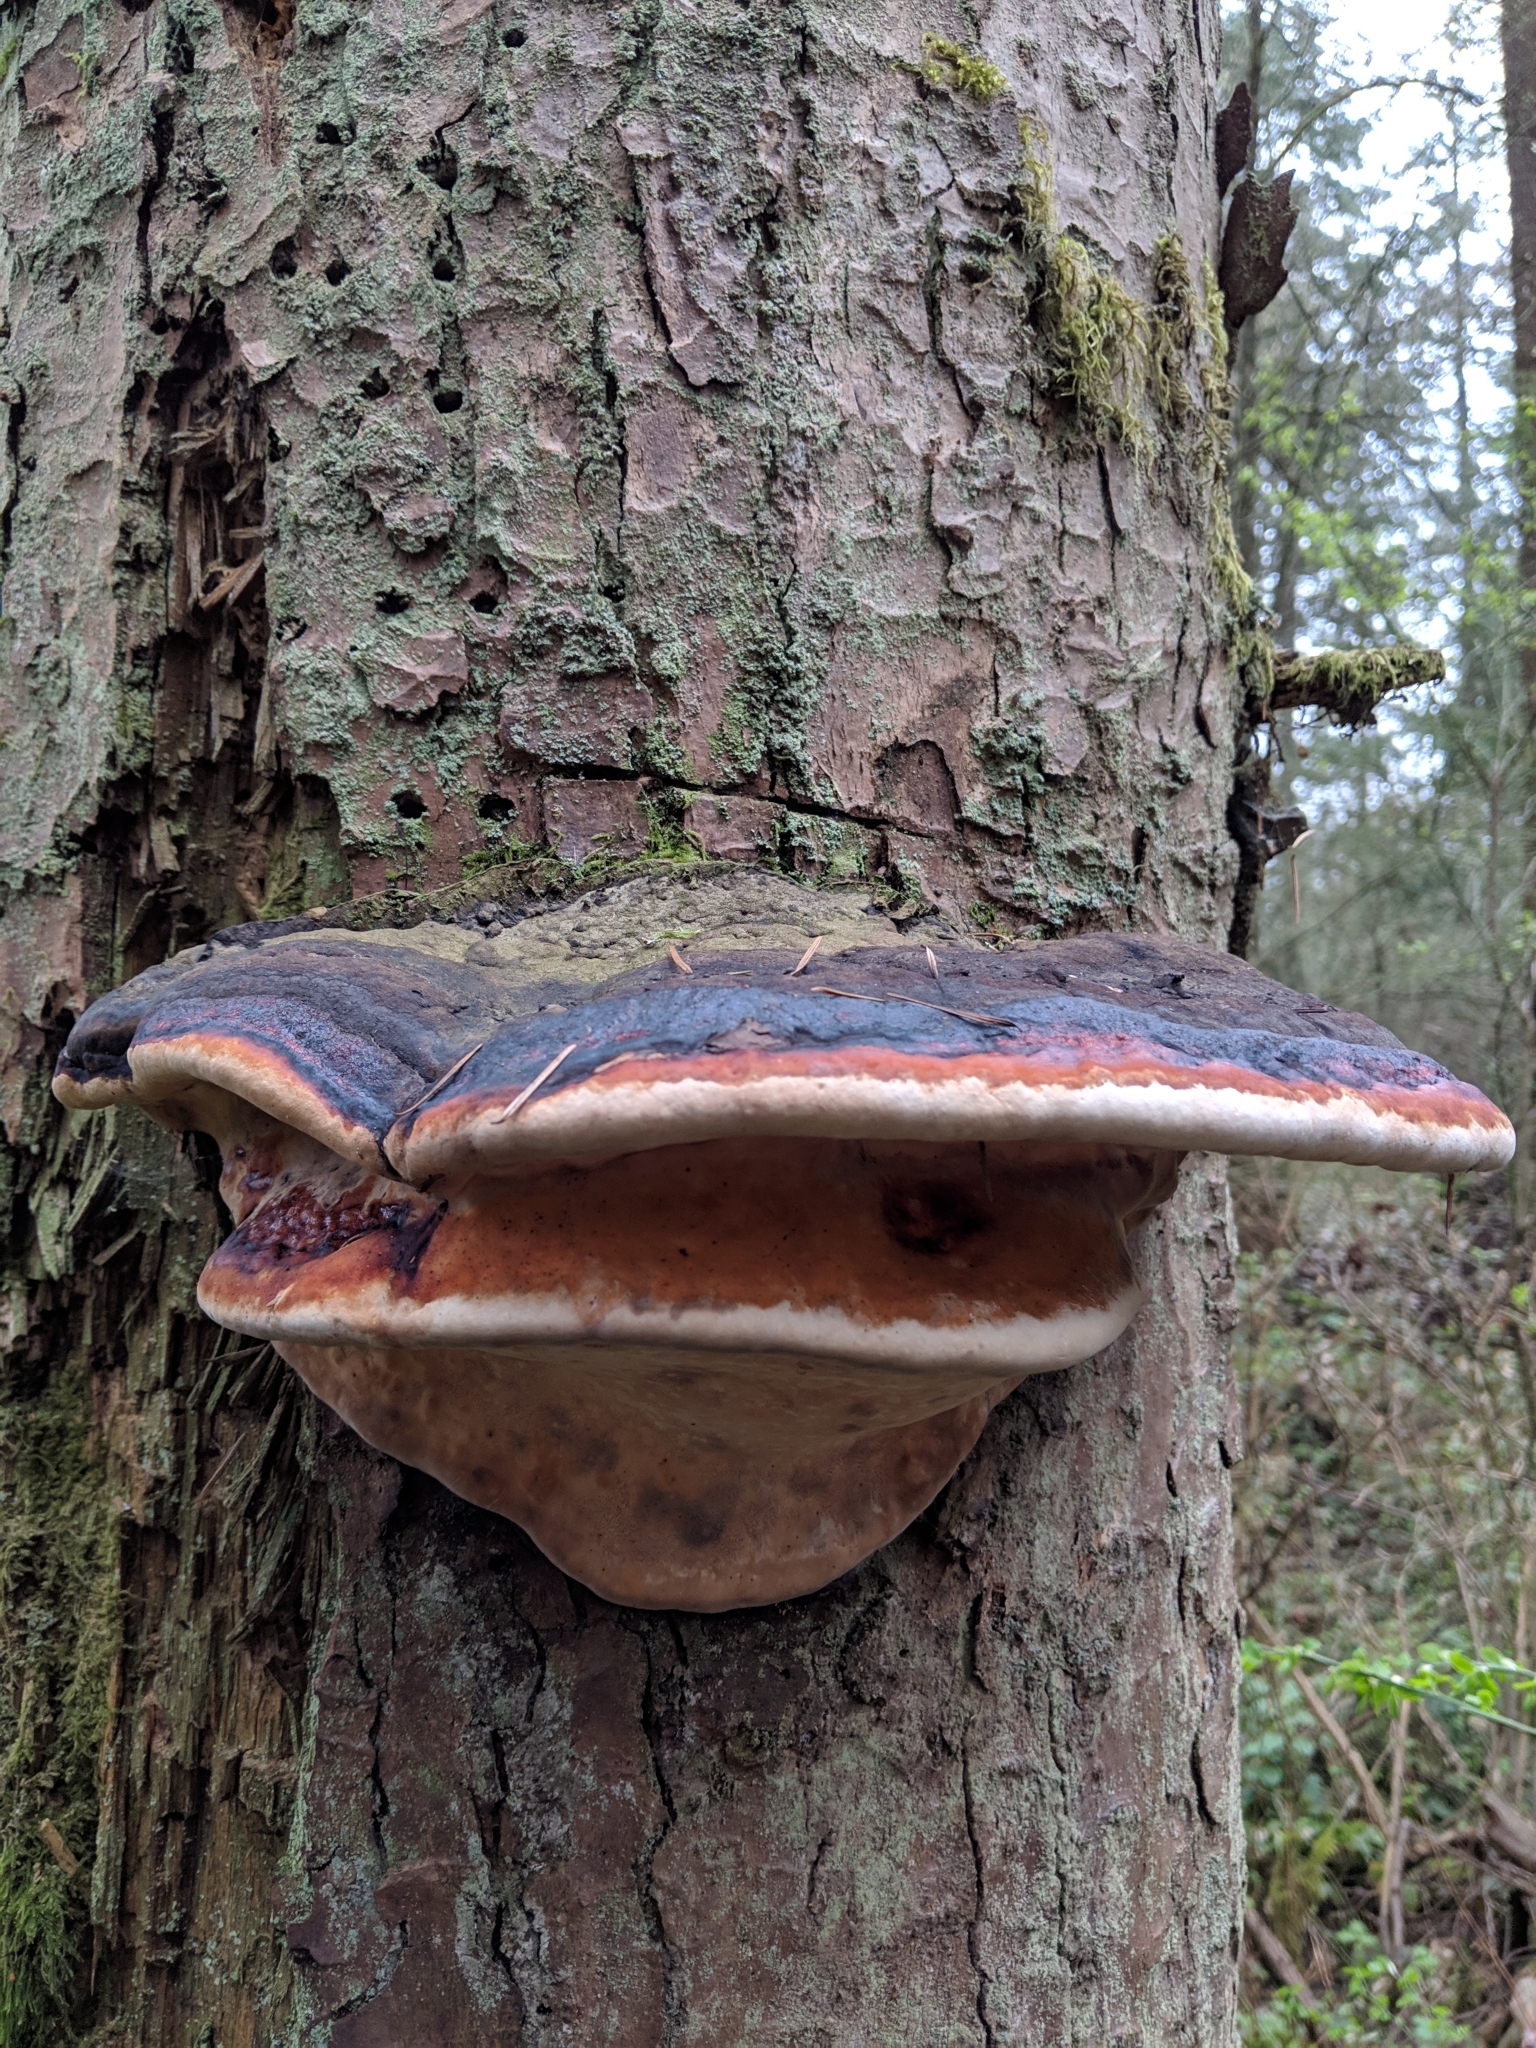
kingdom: Fungi
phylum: Basidiomycota
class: Agaricomycetes
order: Polyporales
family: Fomitopsidaceae
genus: Fomitopsis
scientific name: Fomitopsis mounceae
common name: Northern red belt
